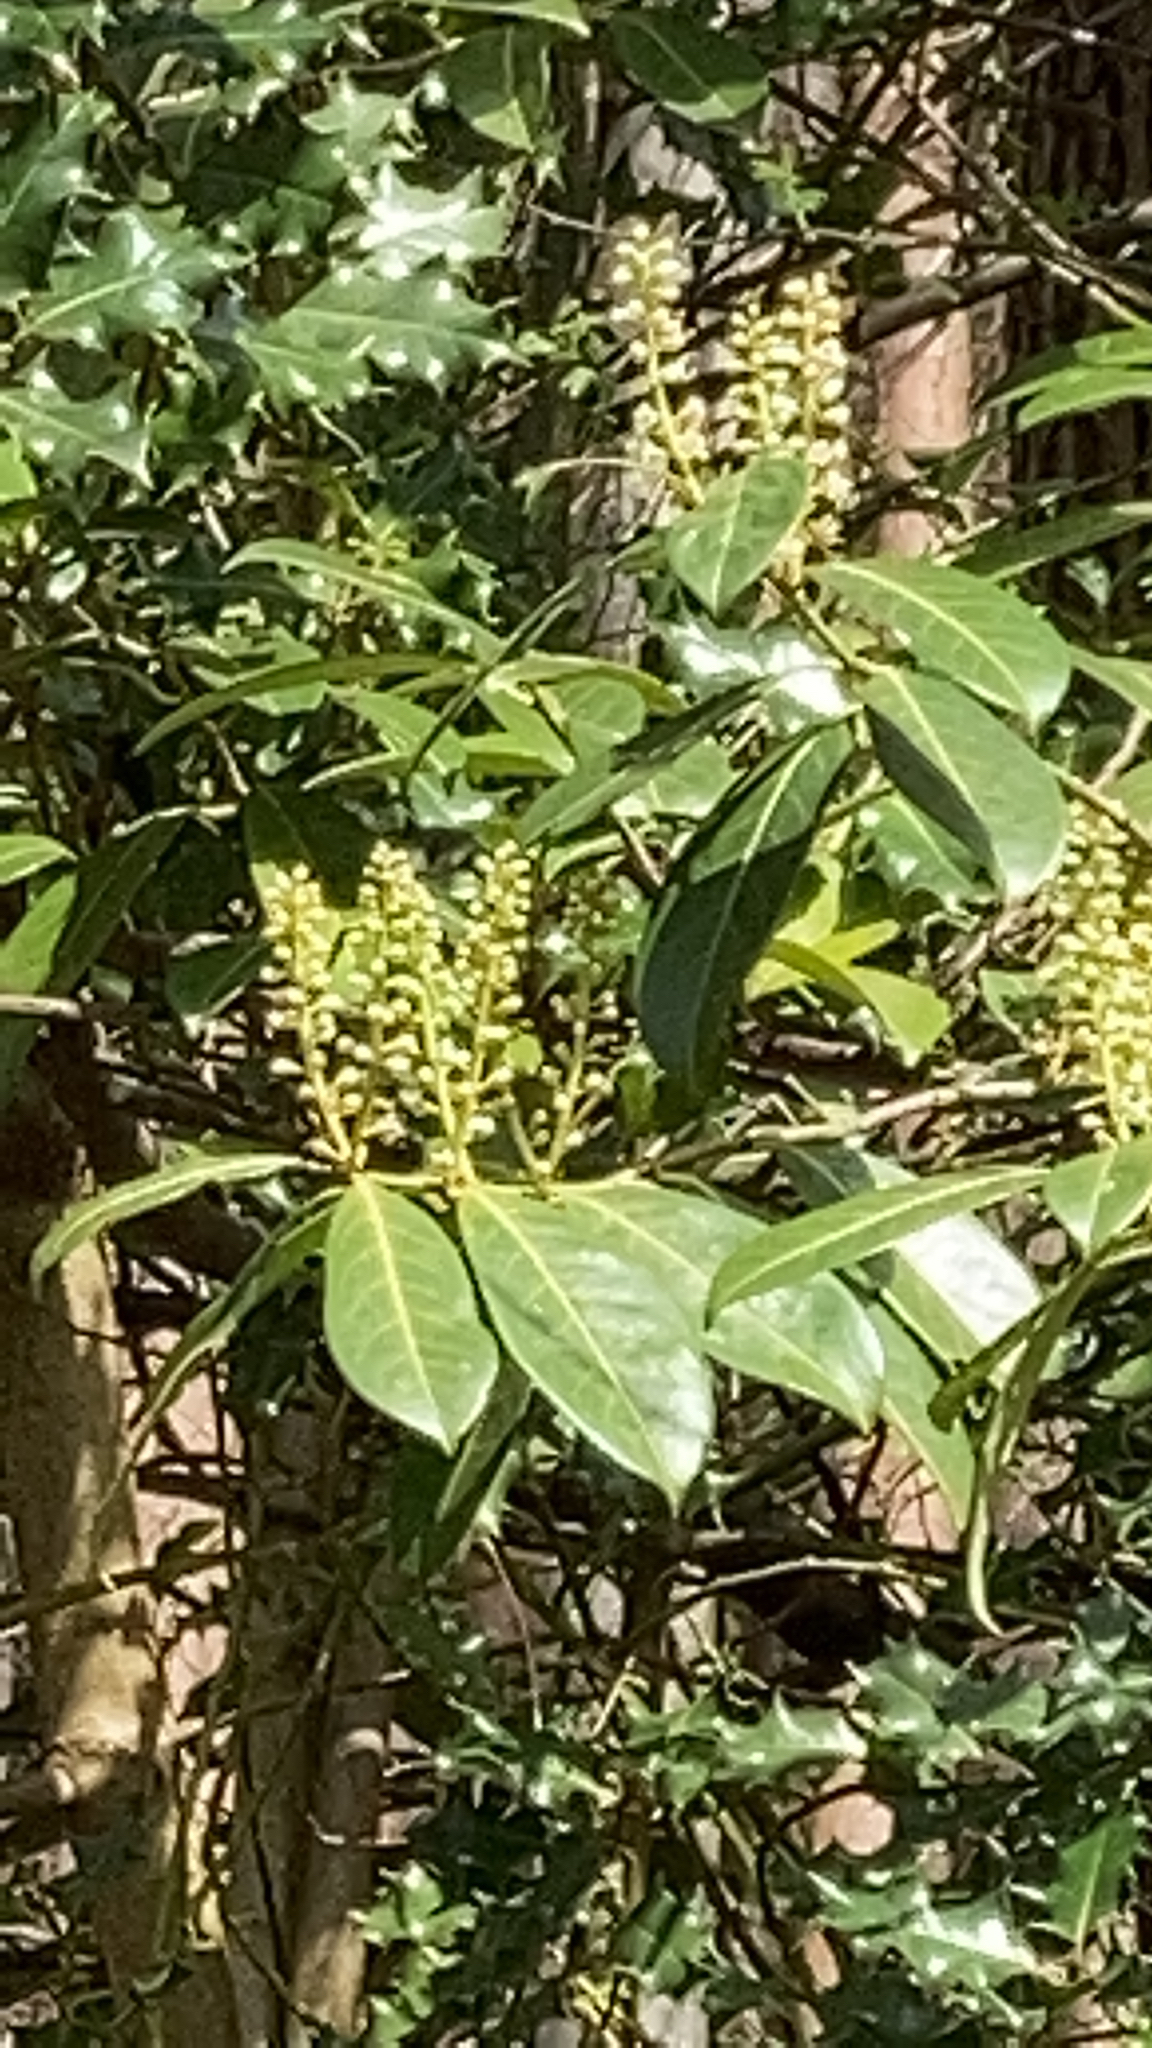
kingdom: Plantae
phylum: Tracheophyta
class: Magnoliopsida
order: Rosales
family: Rosaceae
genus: Prunus
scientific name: Prunus laurocerasus
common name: Cherry laurel
